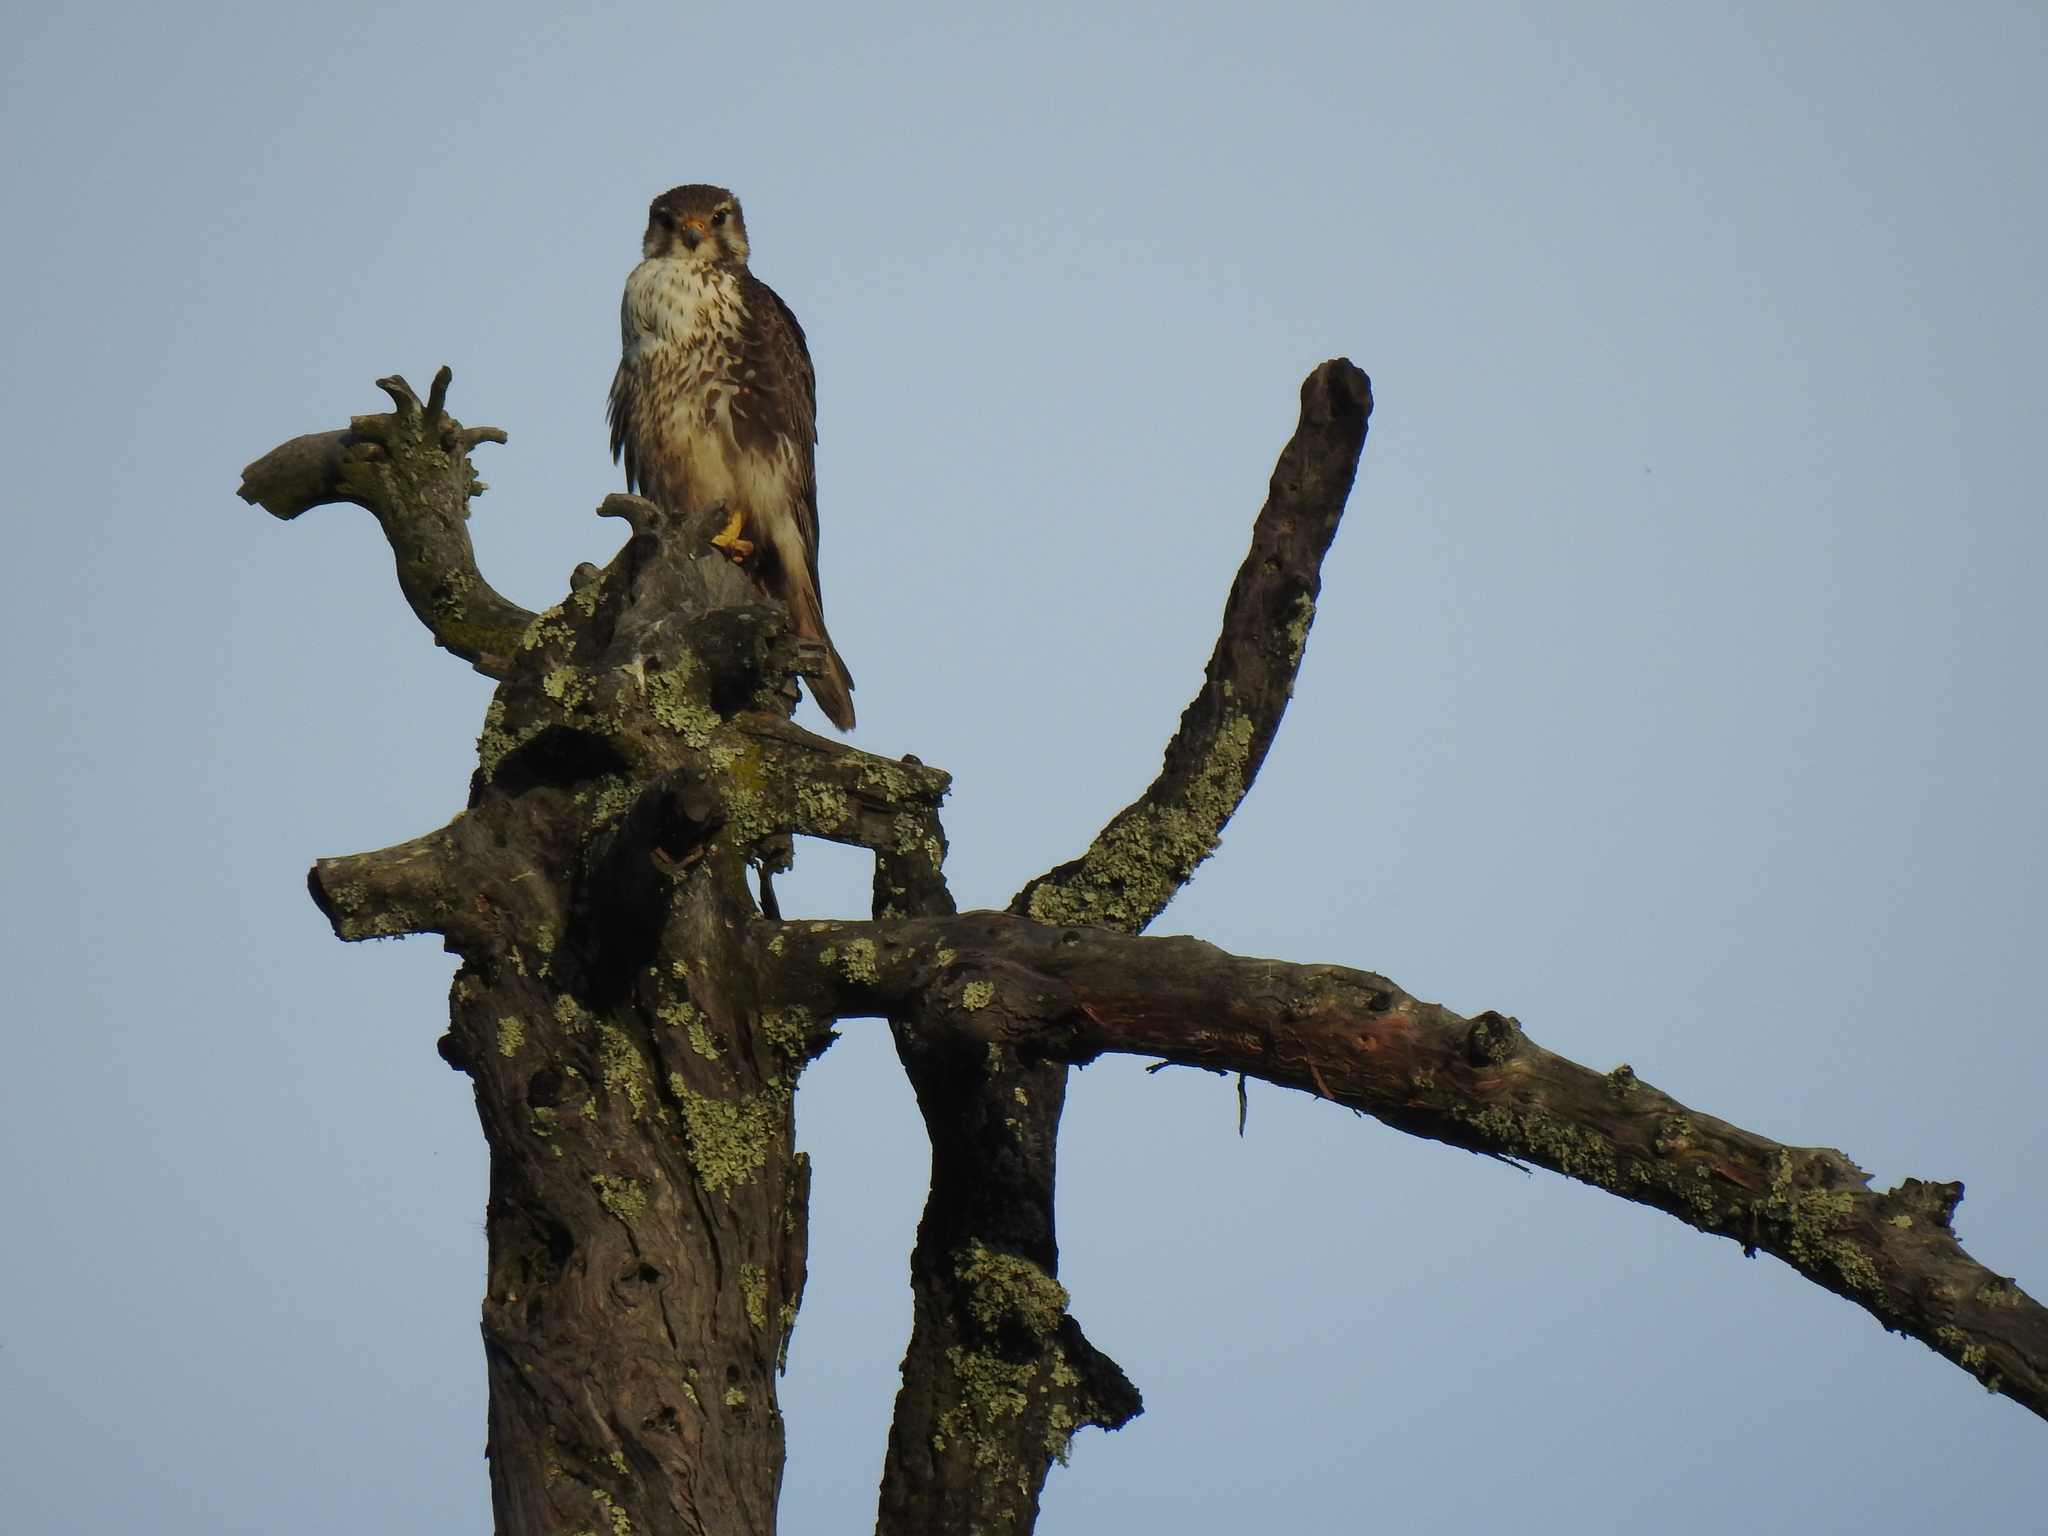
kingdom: Animalia
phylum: Chordata
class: Aves
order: Falconiformes
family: Falconidae
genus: Falco
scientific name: Falco mexicanus
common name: Prairie falcon
